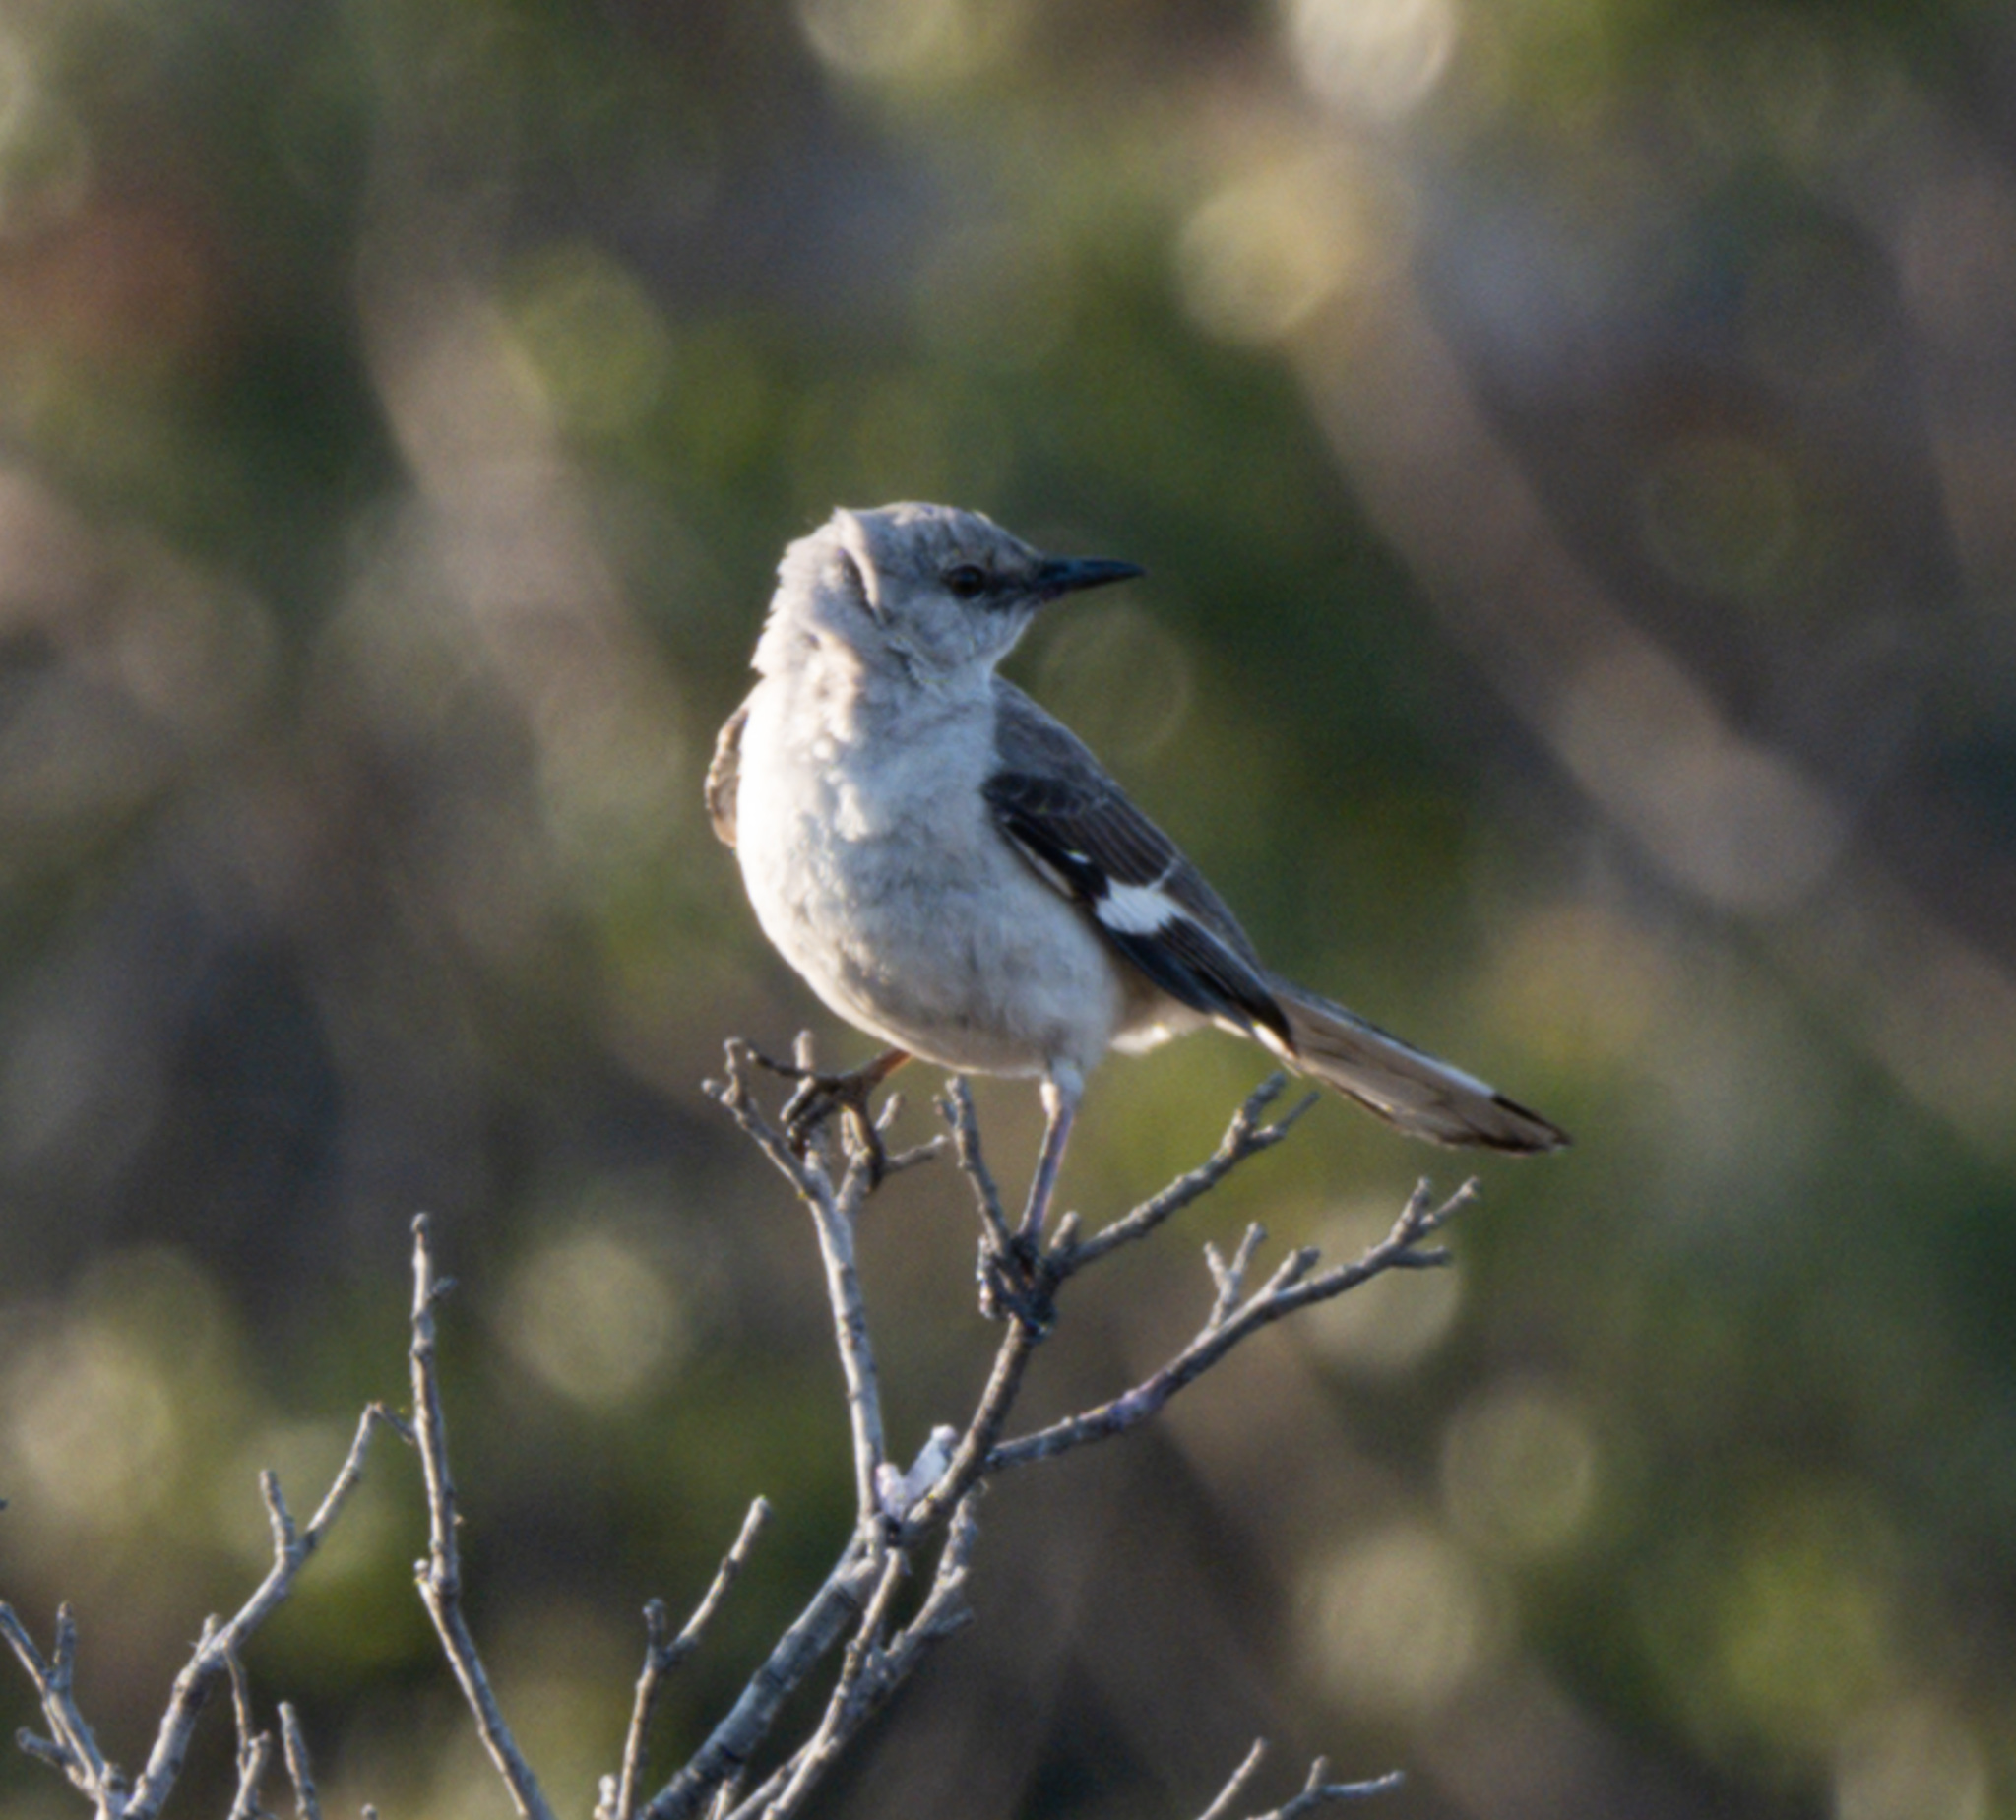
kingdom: Animalia
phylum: Chordata
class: Aves
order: Passeriformes
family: Mimidae
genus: Mimus
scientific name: Mimus polyglottos
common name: Northern mockingbird
